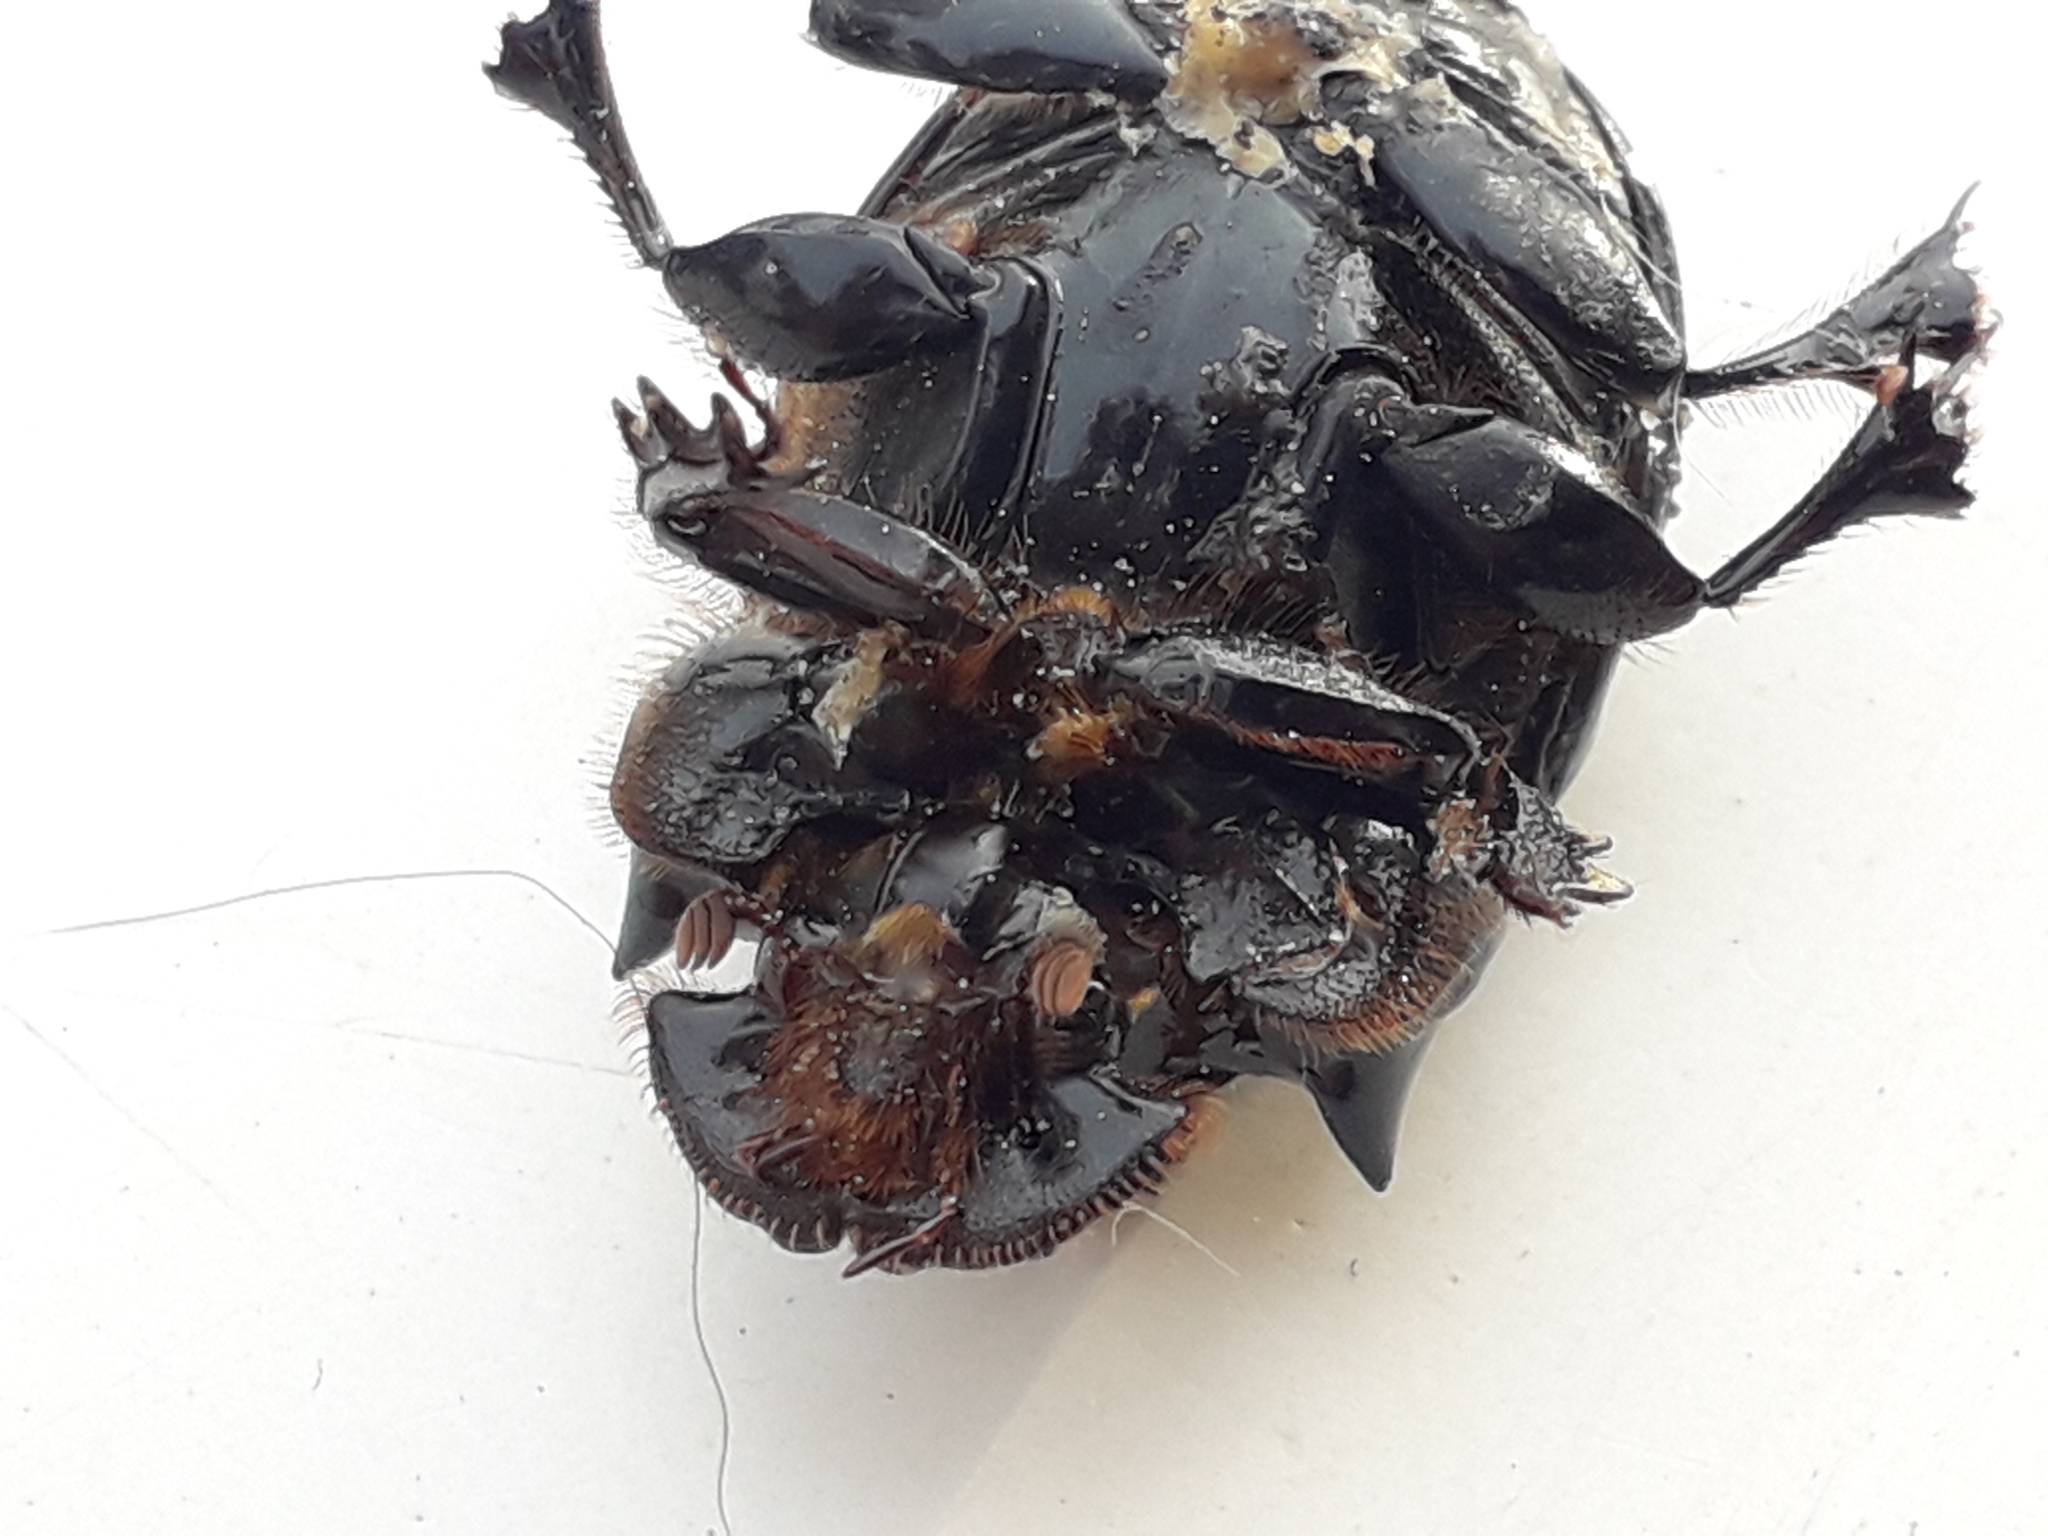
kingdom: Animalia
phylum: Arthropoda
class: Insecta
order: Coleoptera
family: Scarabaeidae
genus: Copris
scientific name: Copris lunaris
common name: Horned dung beetle
